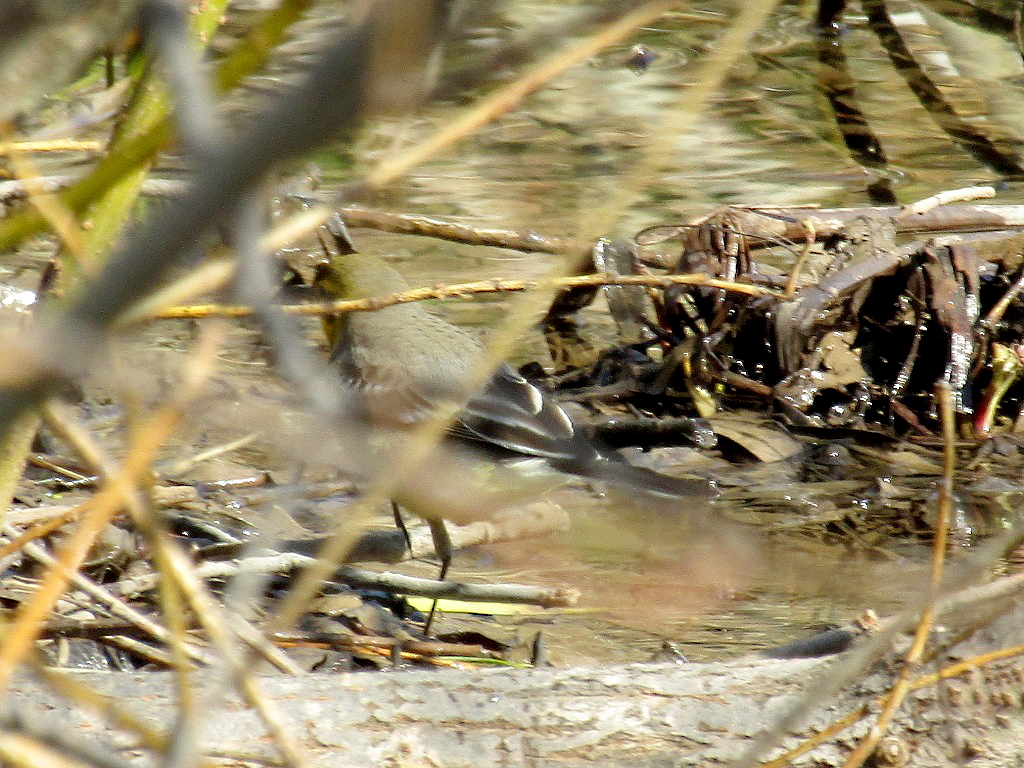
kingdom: Animalia
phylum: Chordata
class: Aves
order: Passeriformes
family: Motacillidae
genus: Motacilla
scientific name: Motacilla citreola
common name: Citrine wagtail
